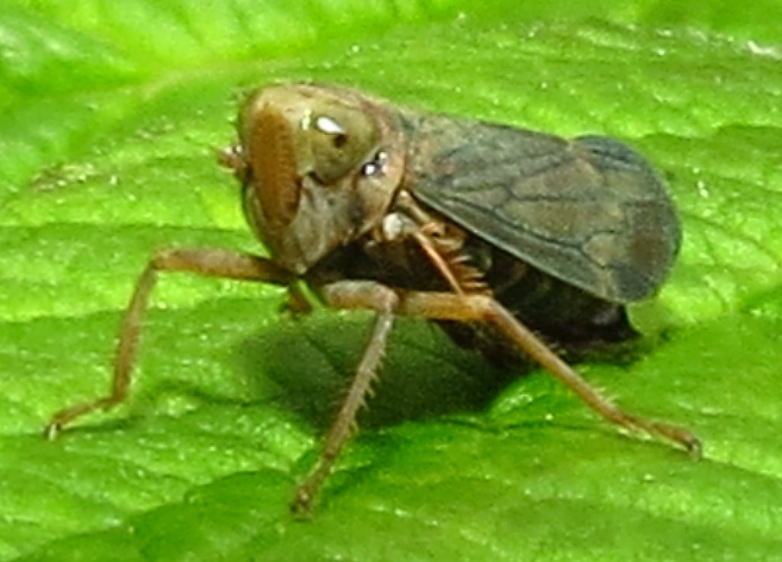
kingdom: Animalia
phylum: Arthropoda
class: Insecta
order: Hemiptera
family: Cicadellidae
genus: Jikradia
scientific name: Jikradia olitoria
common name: Coppery leafhopper
